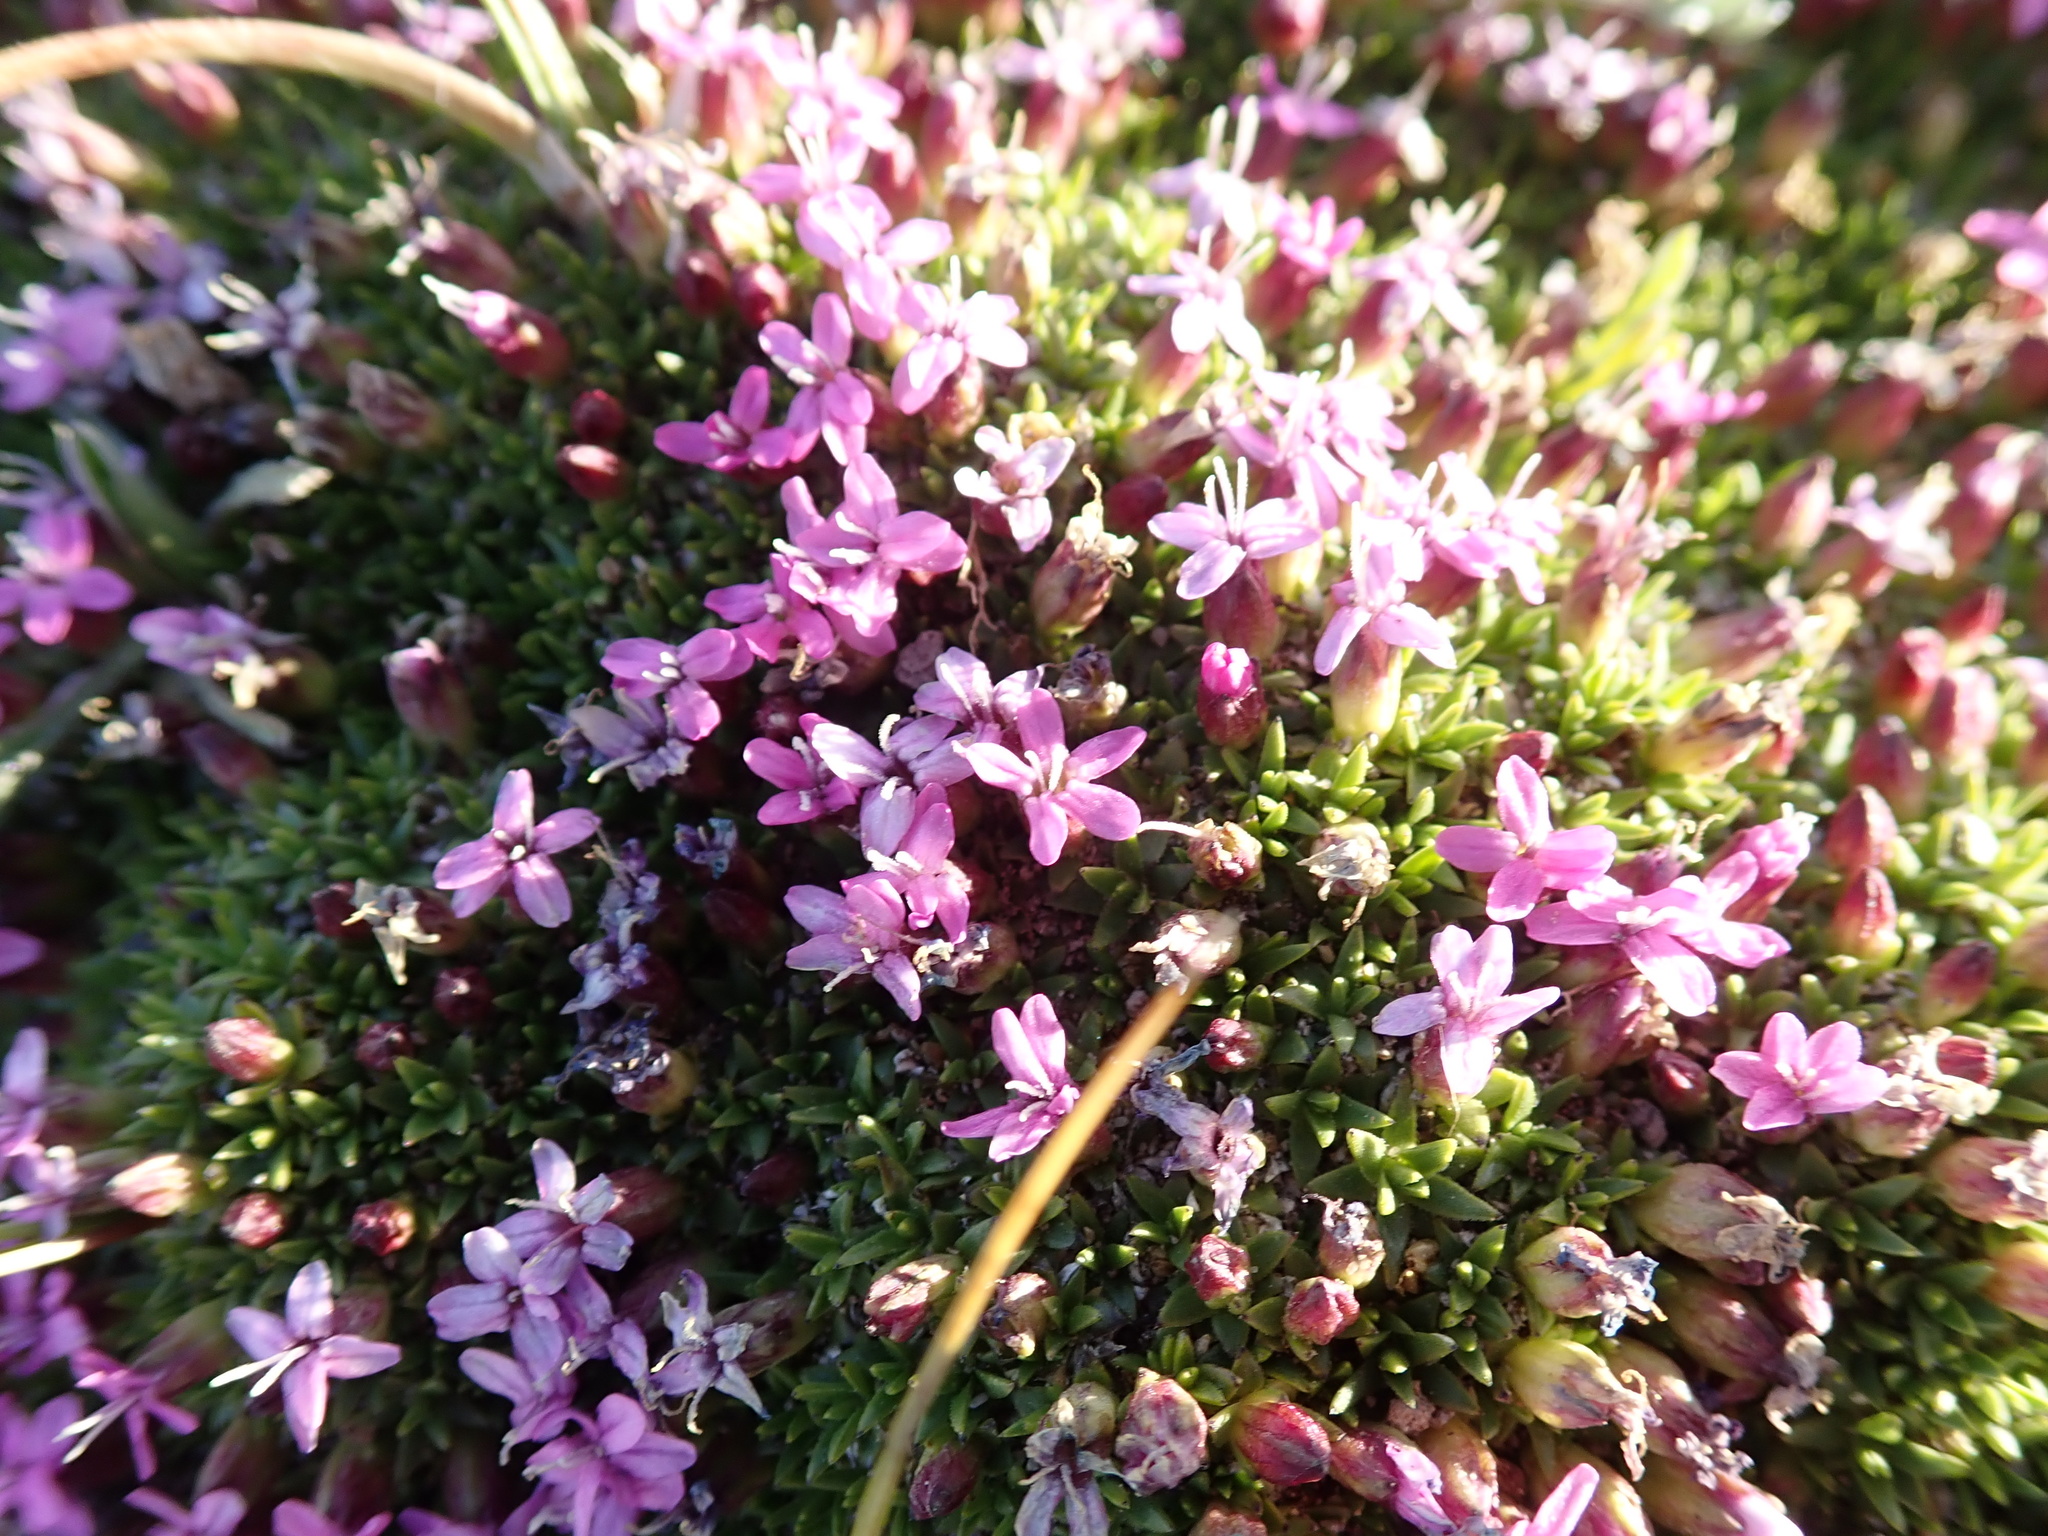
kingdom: Plantae
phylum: Tracheophyta
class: Magnoliopsida
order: Caryophyllales
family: Caryophyllaceae
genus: Silene
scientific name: Silene acaulis
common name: Moss campion
